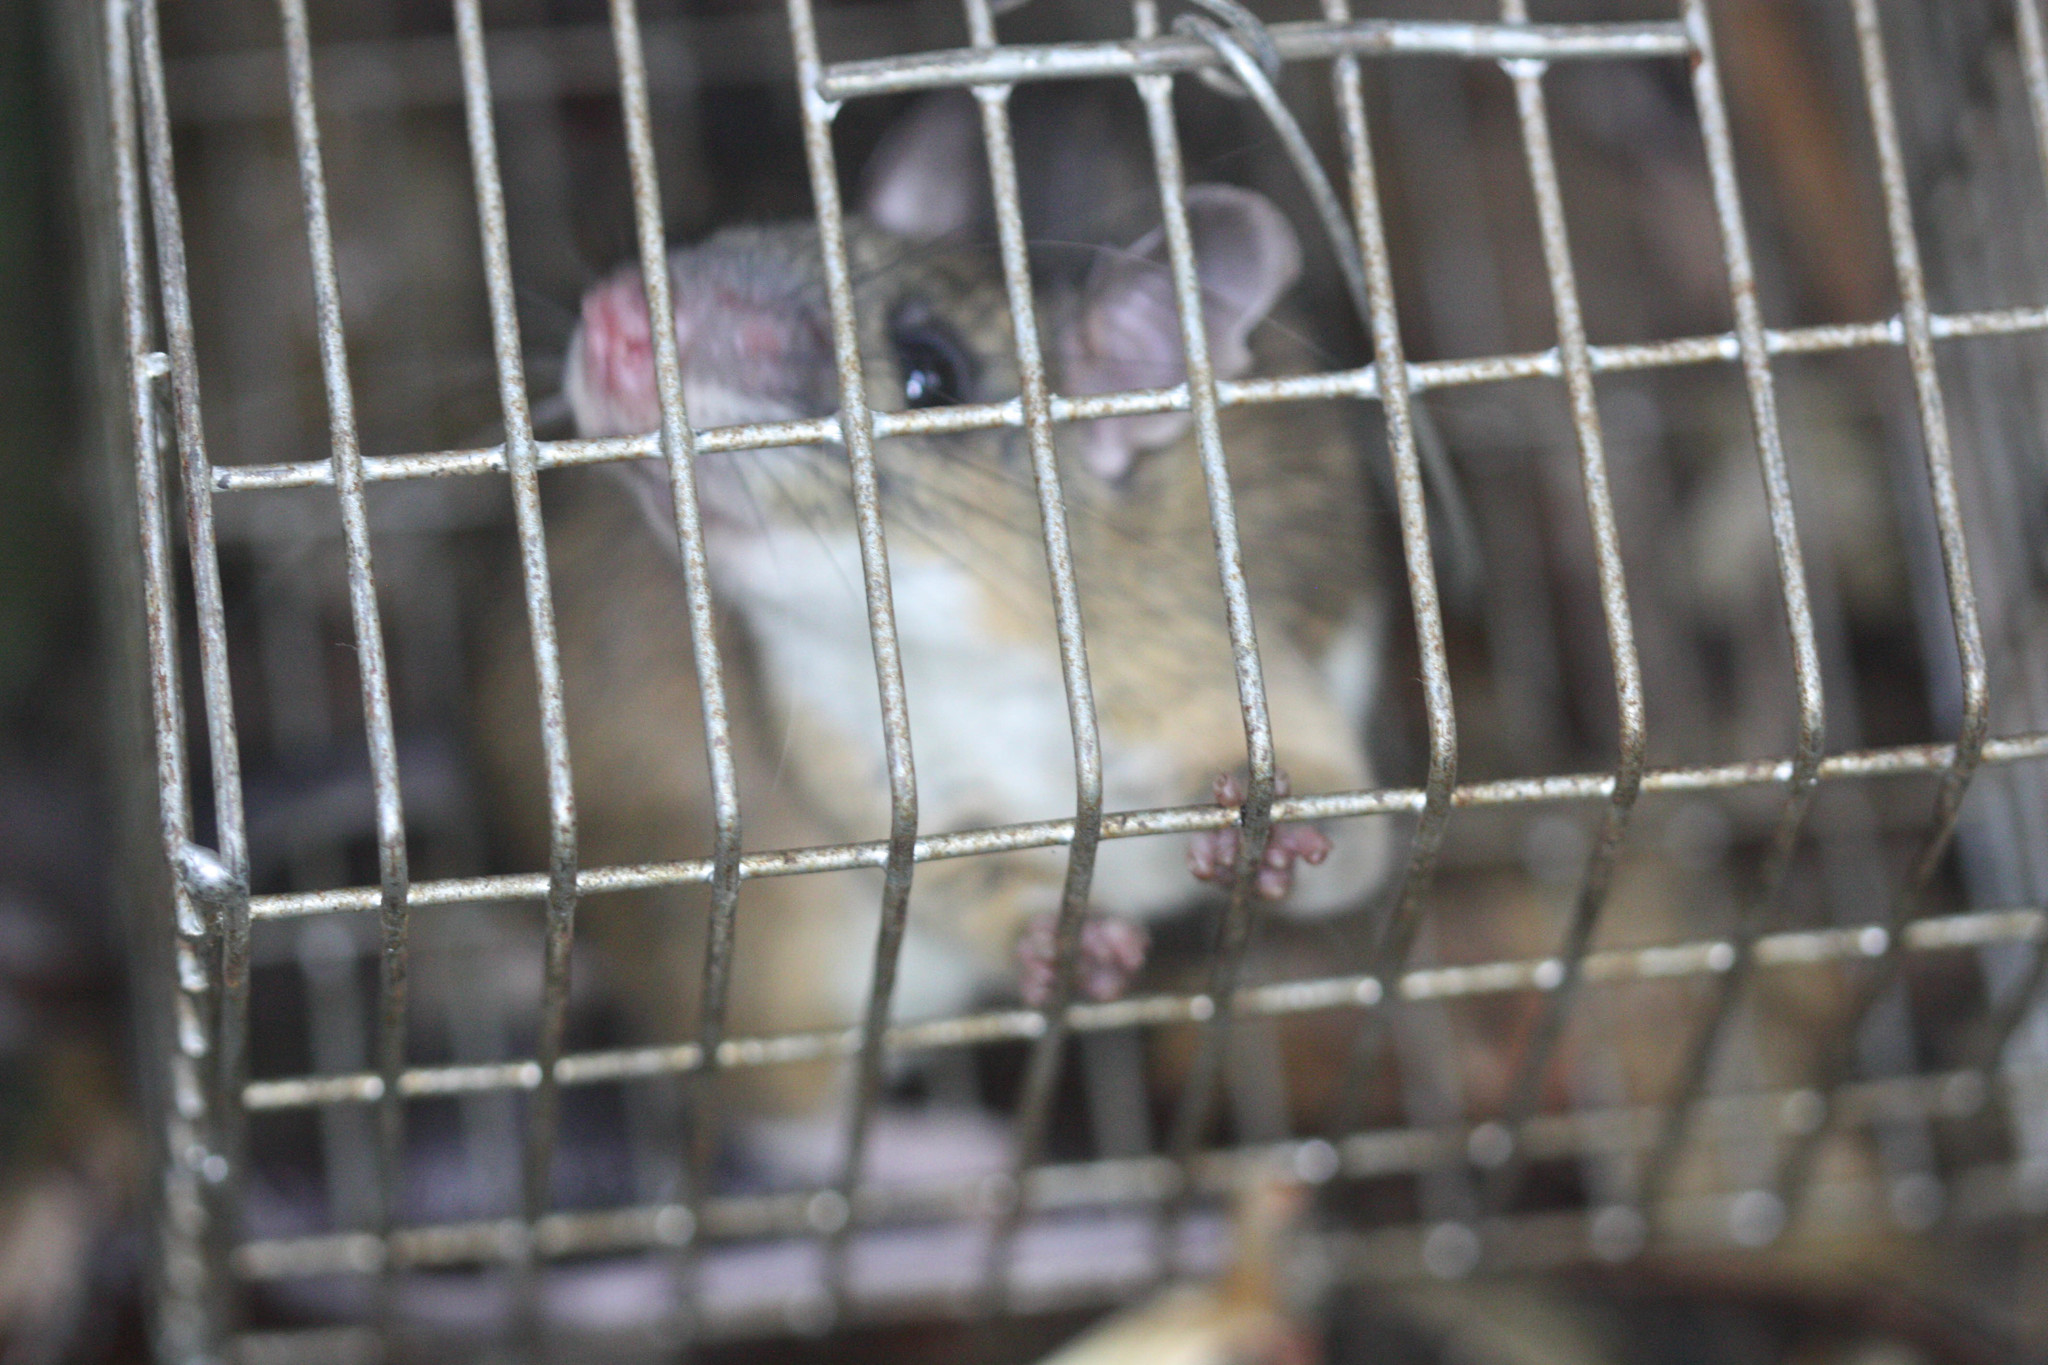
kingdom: Animalia
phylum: Chordata
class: Mammalia
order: Rodentia
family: Muridae
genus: Niviventer
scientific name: Niviventer fulvescens
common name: Indomalayan niviventer
